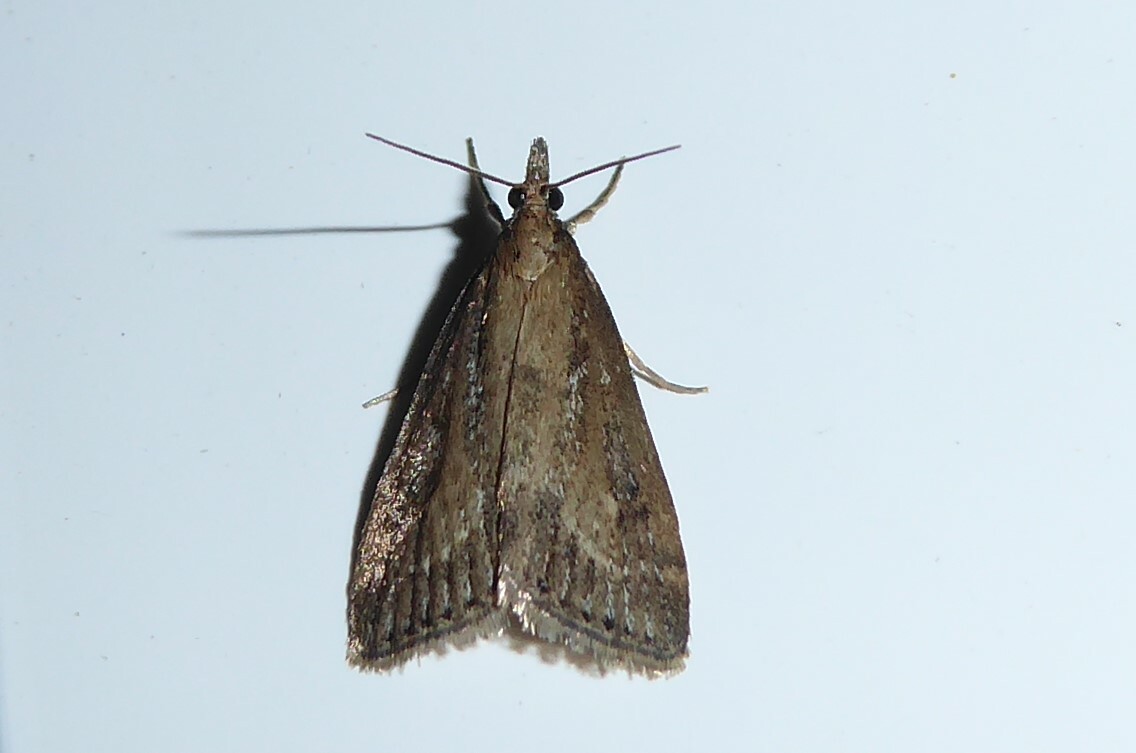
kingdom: Animalia
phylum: Arthropoda
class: Insecta
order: Lepidoptera
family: Crambidae
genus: Eudonia
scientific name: Eudonia octophora
